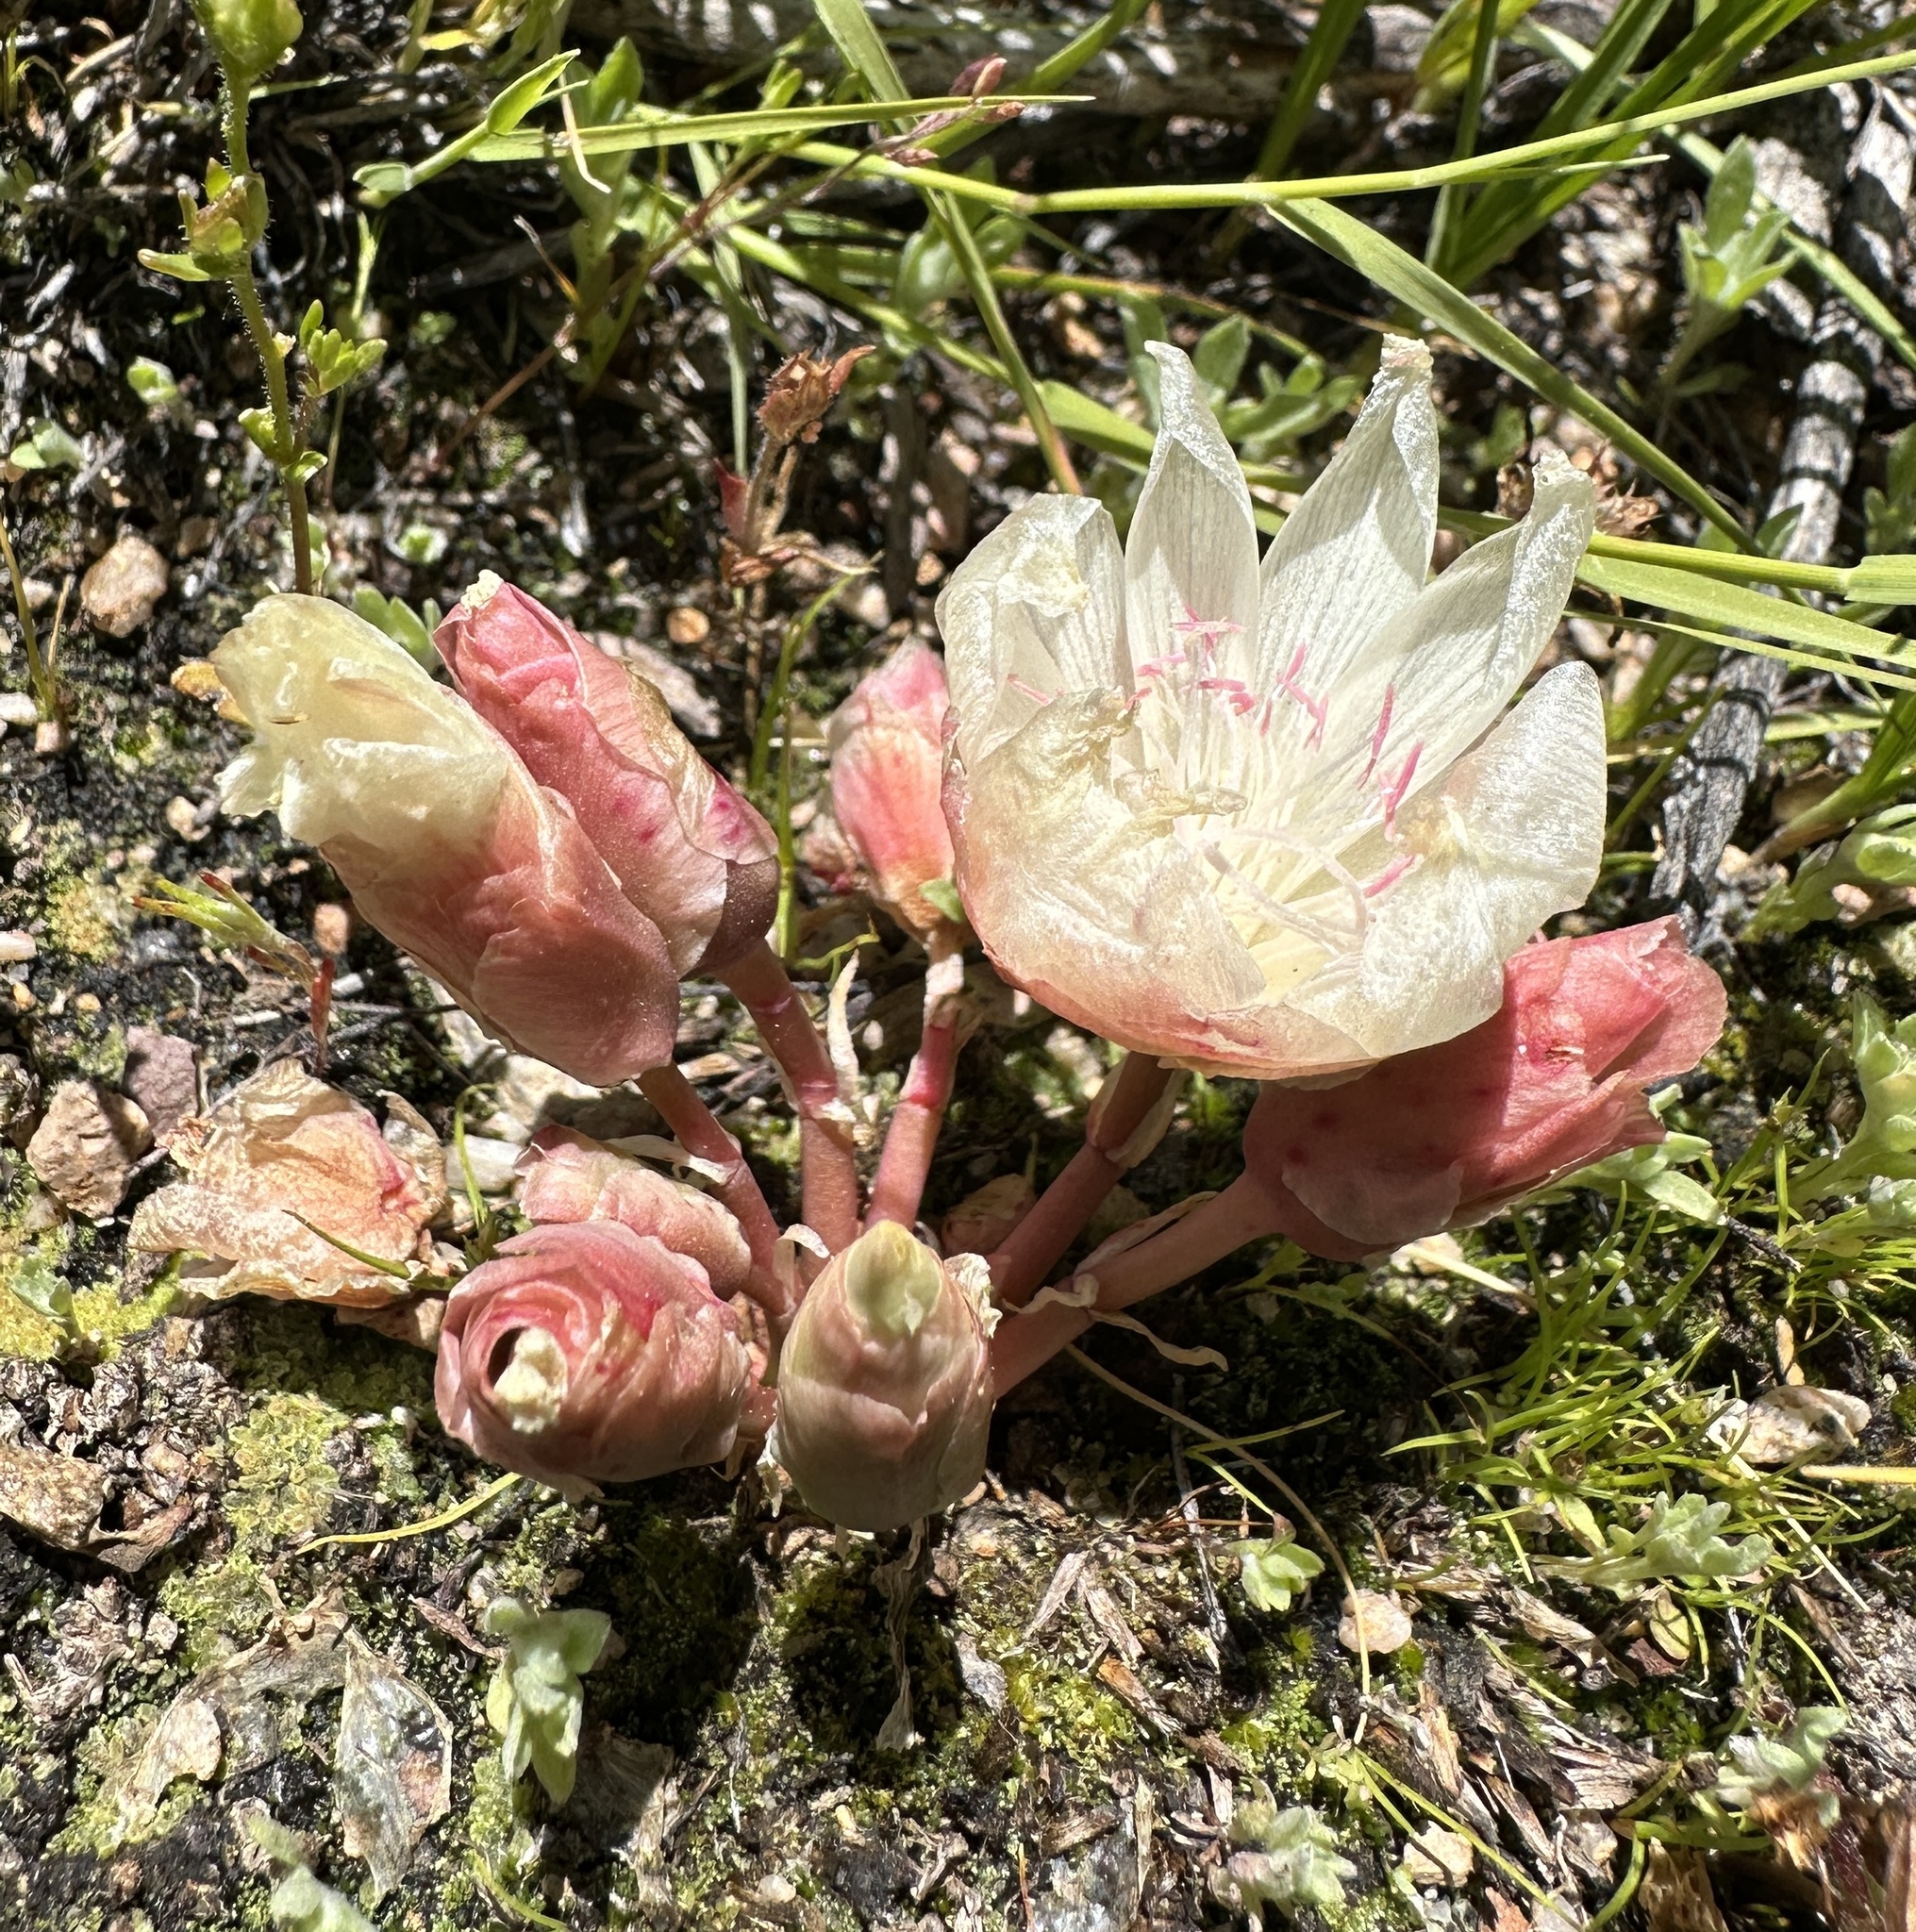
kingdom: Plantae
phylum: Tracheophyta
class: Magnoliopsida
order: Caryophyllales
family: Montiaceae
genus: Lewisia
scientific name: Lewisia rediviva
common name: Bitter-root
